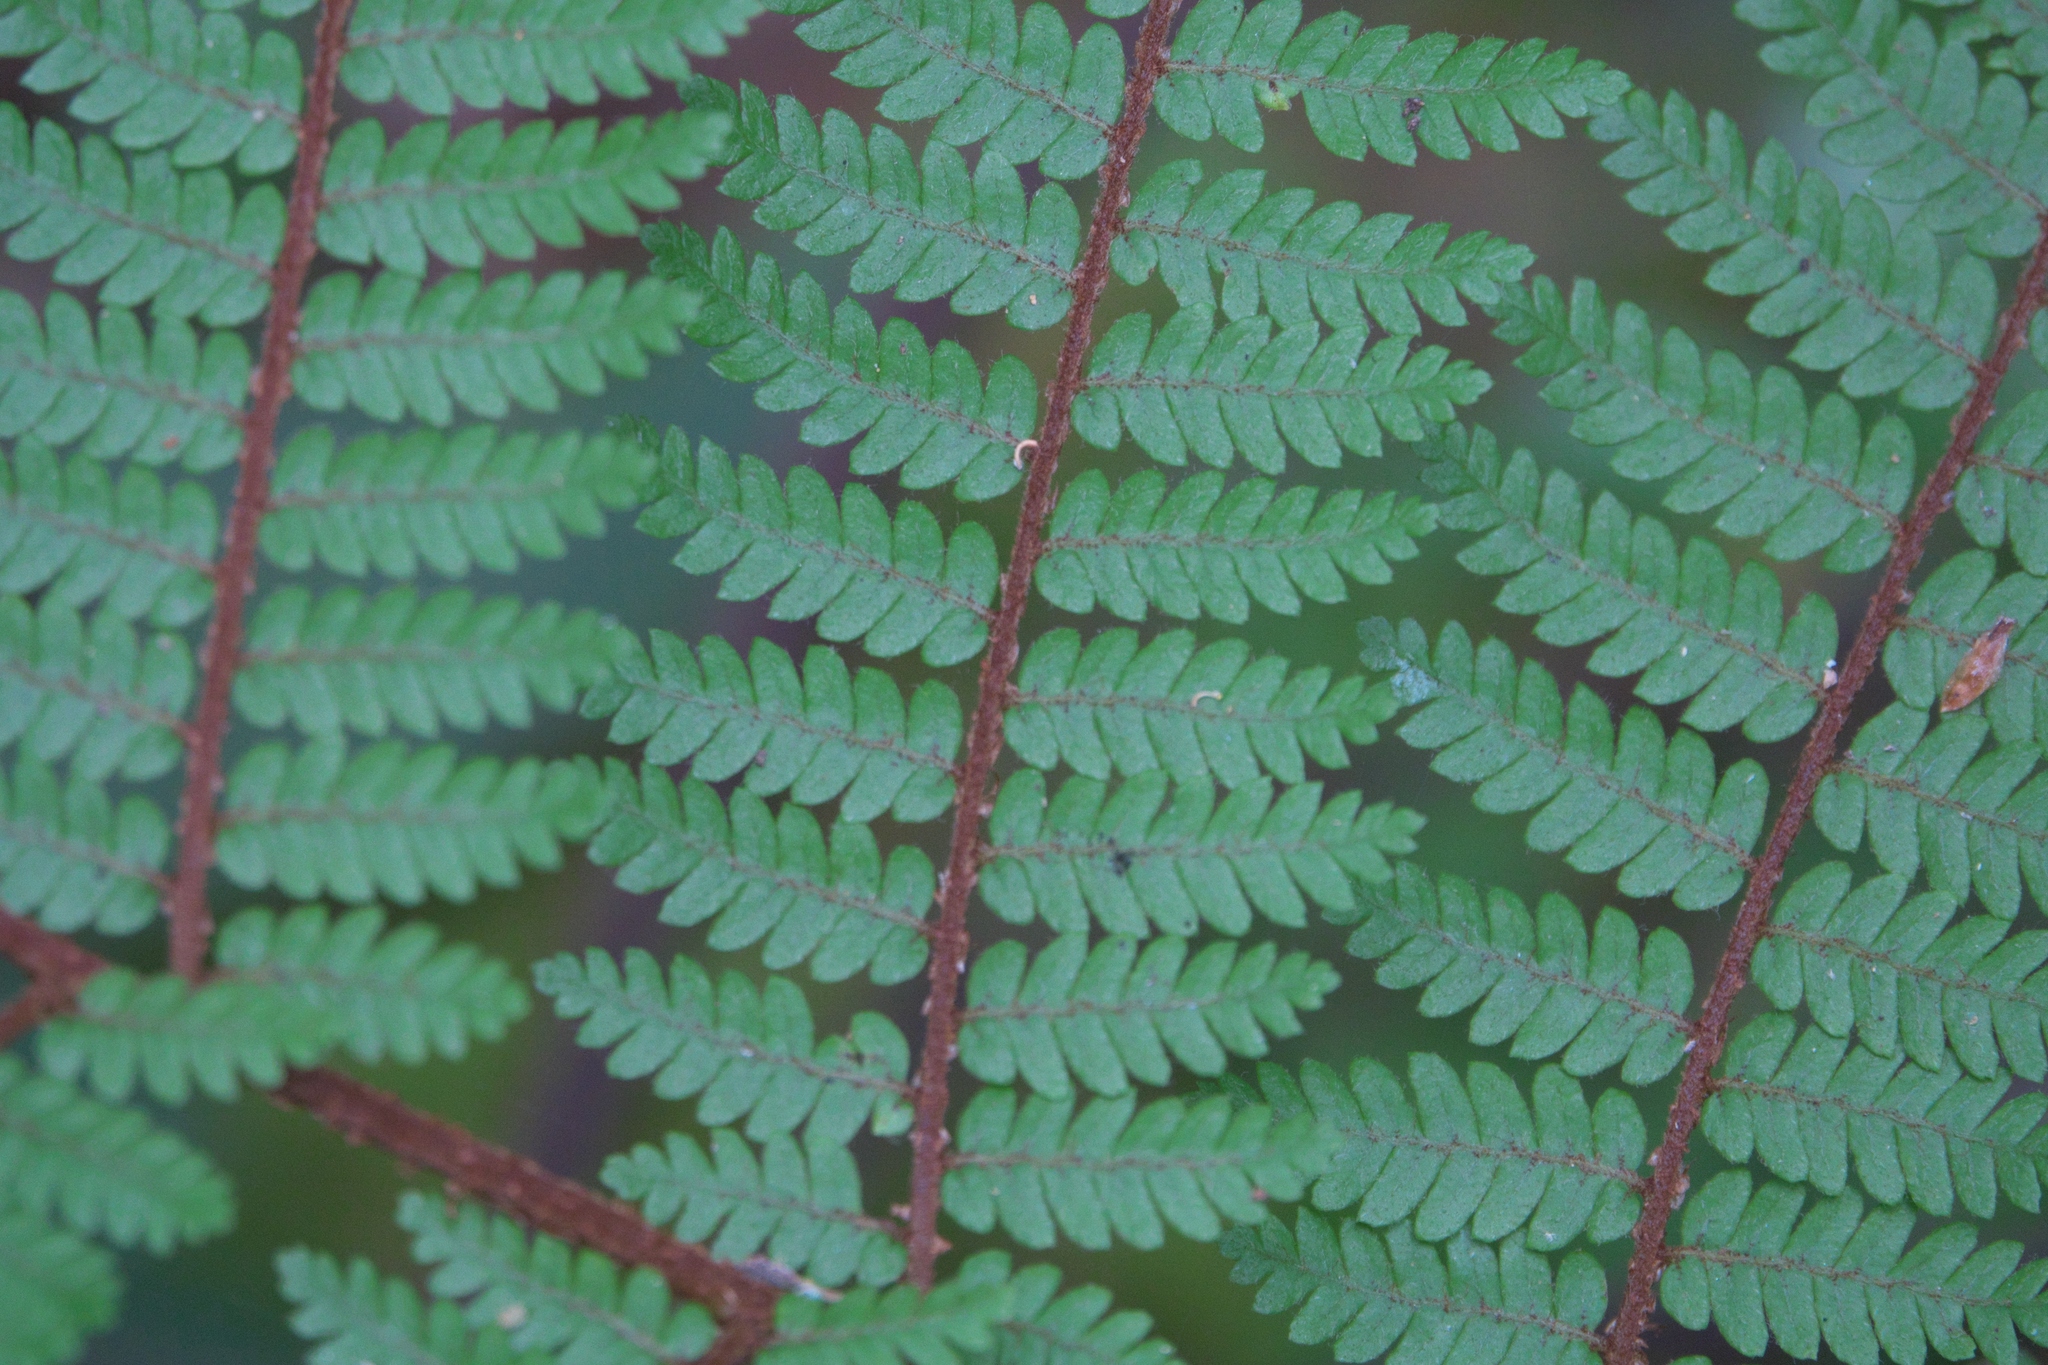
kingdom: Plantae
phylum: Tracheophyta
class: Polypodiopsida
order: Cyatheales
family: Cyatheaceae
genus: Alsophila
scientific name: Alsophila colensoi
